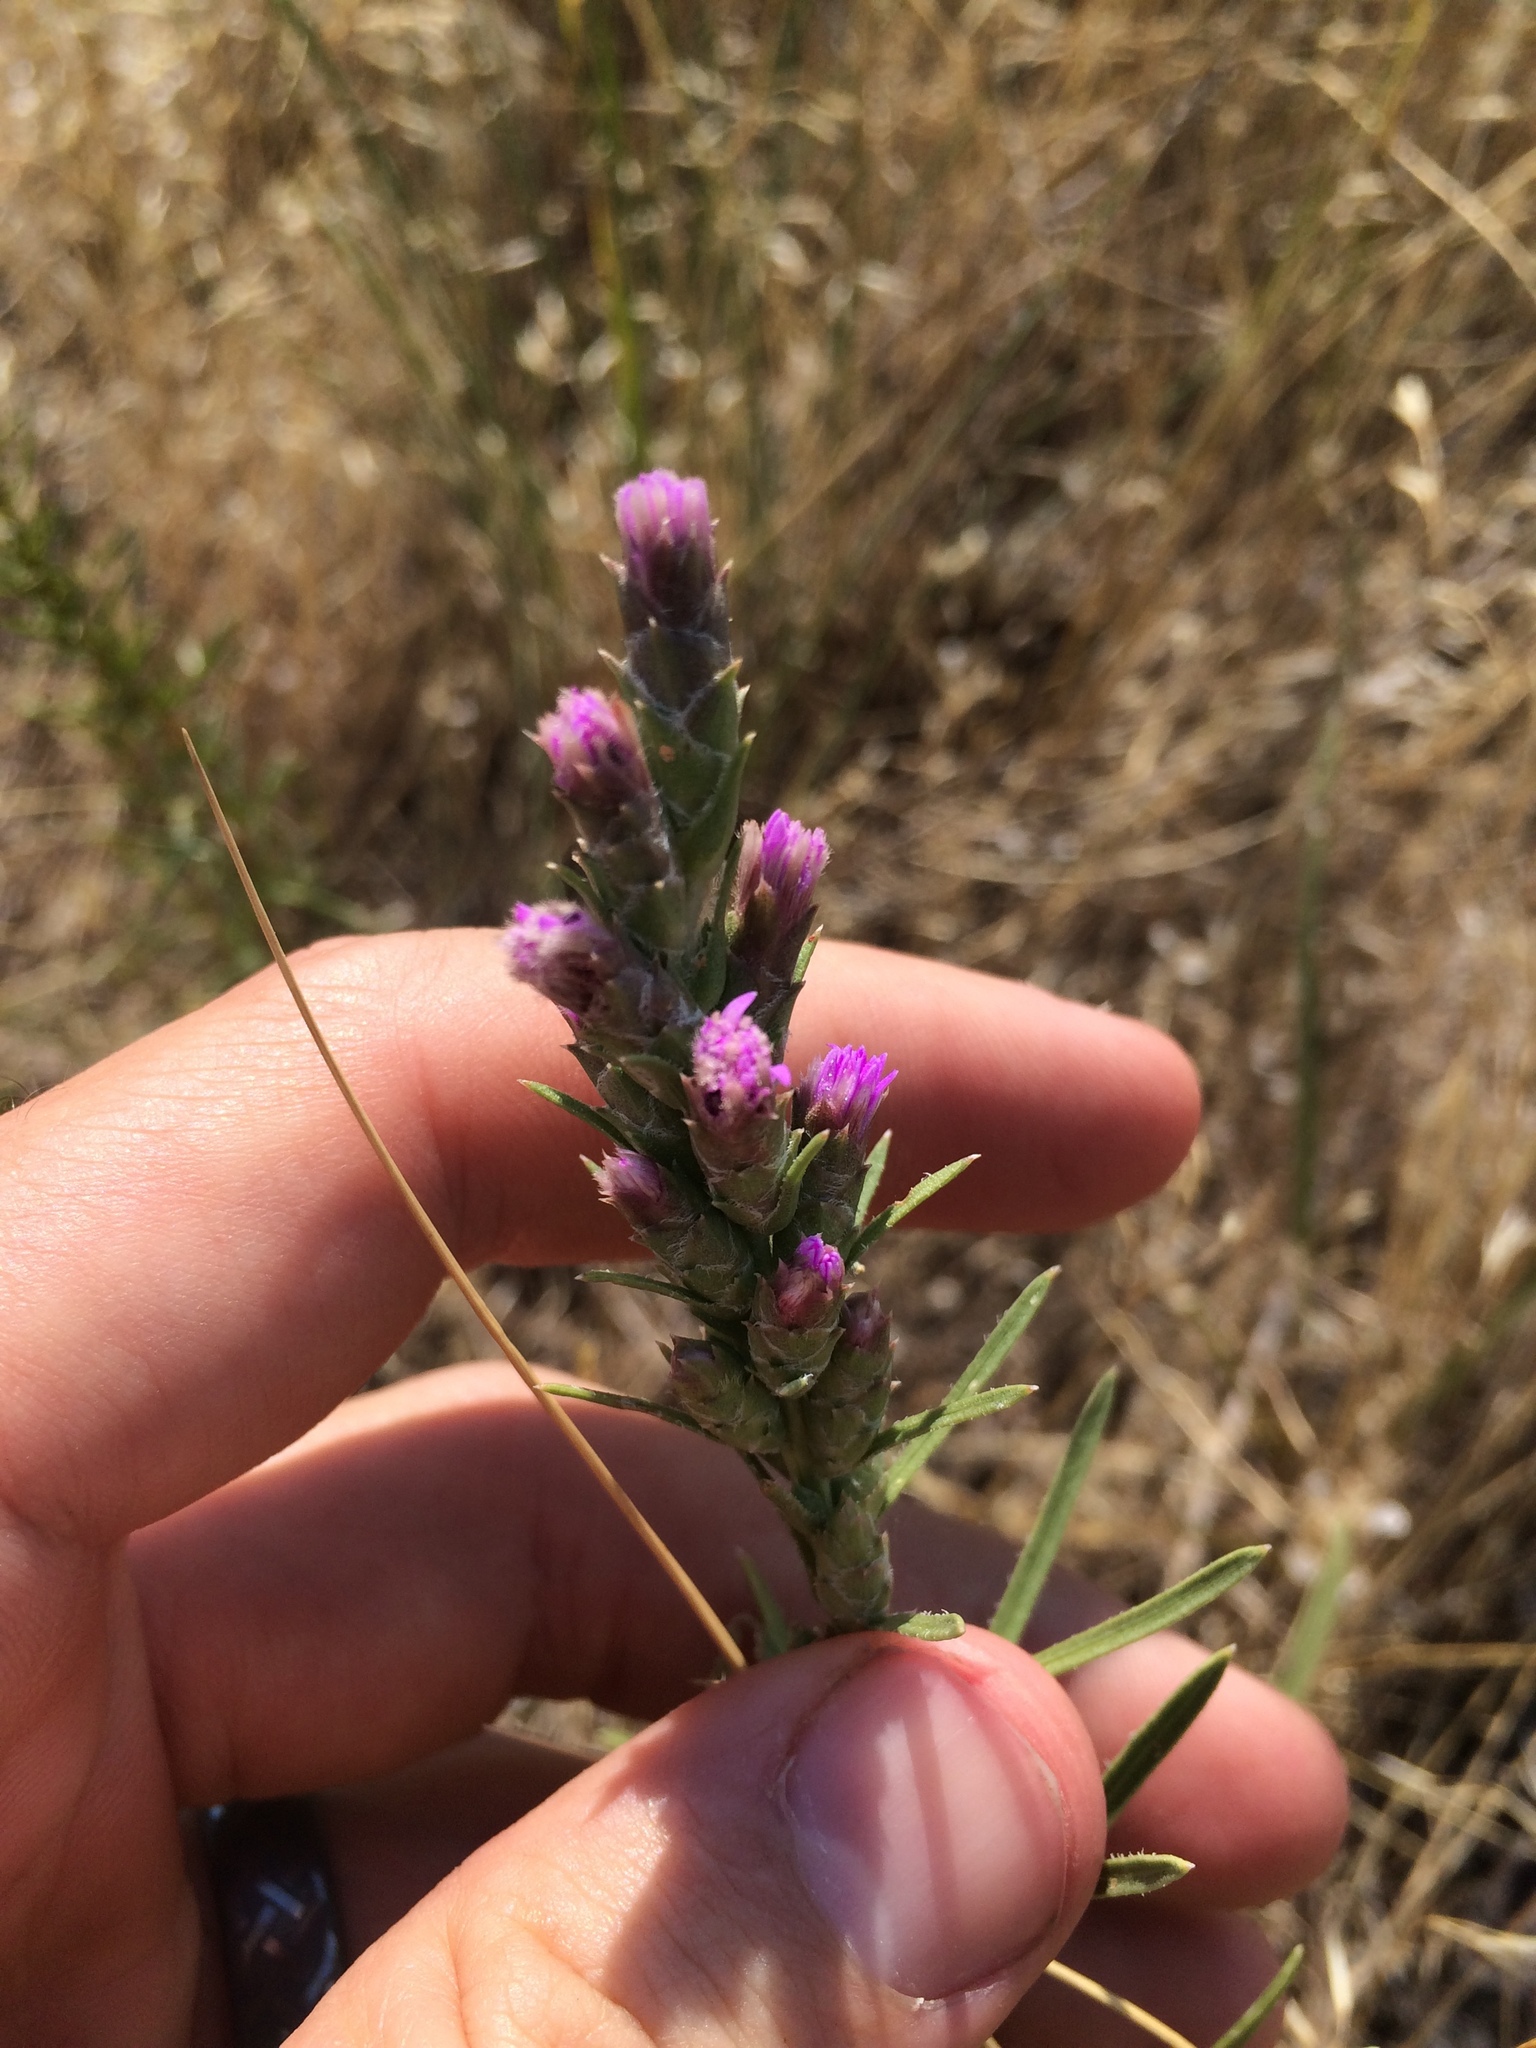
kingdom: Plantae
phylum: Tracheophyta
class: Magnoliopsida
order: Asterales
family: Asteraceae
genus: Liatris
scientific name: Liatris punctata
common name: Dotted gayfeather
